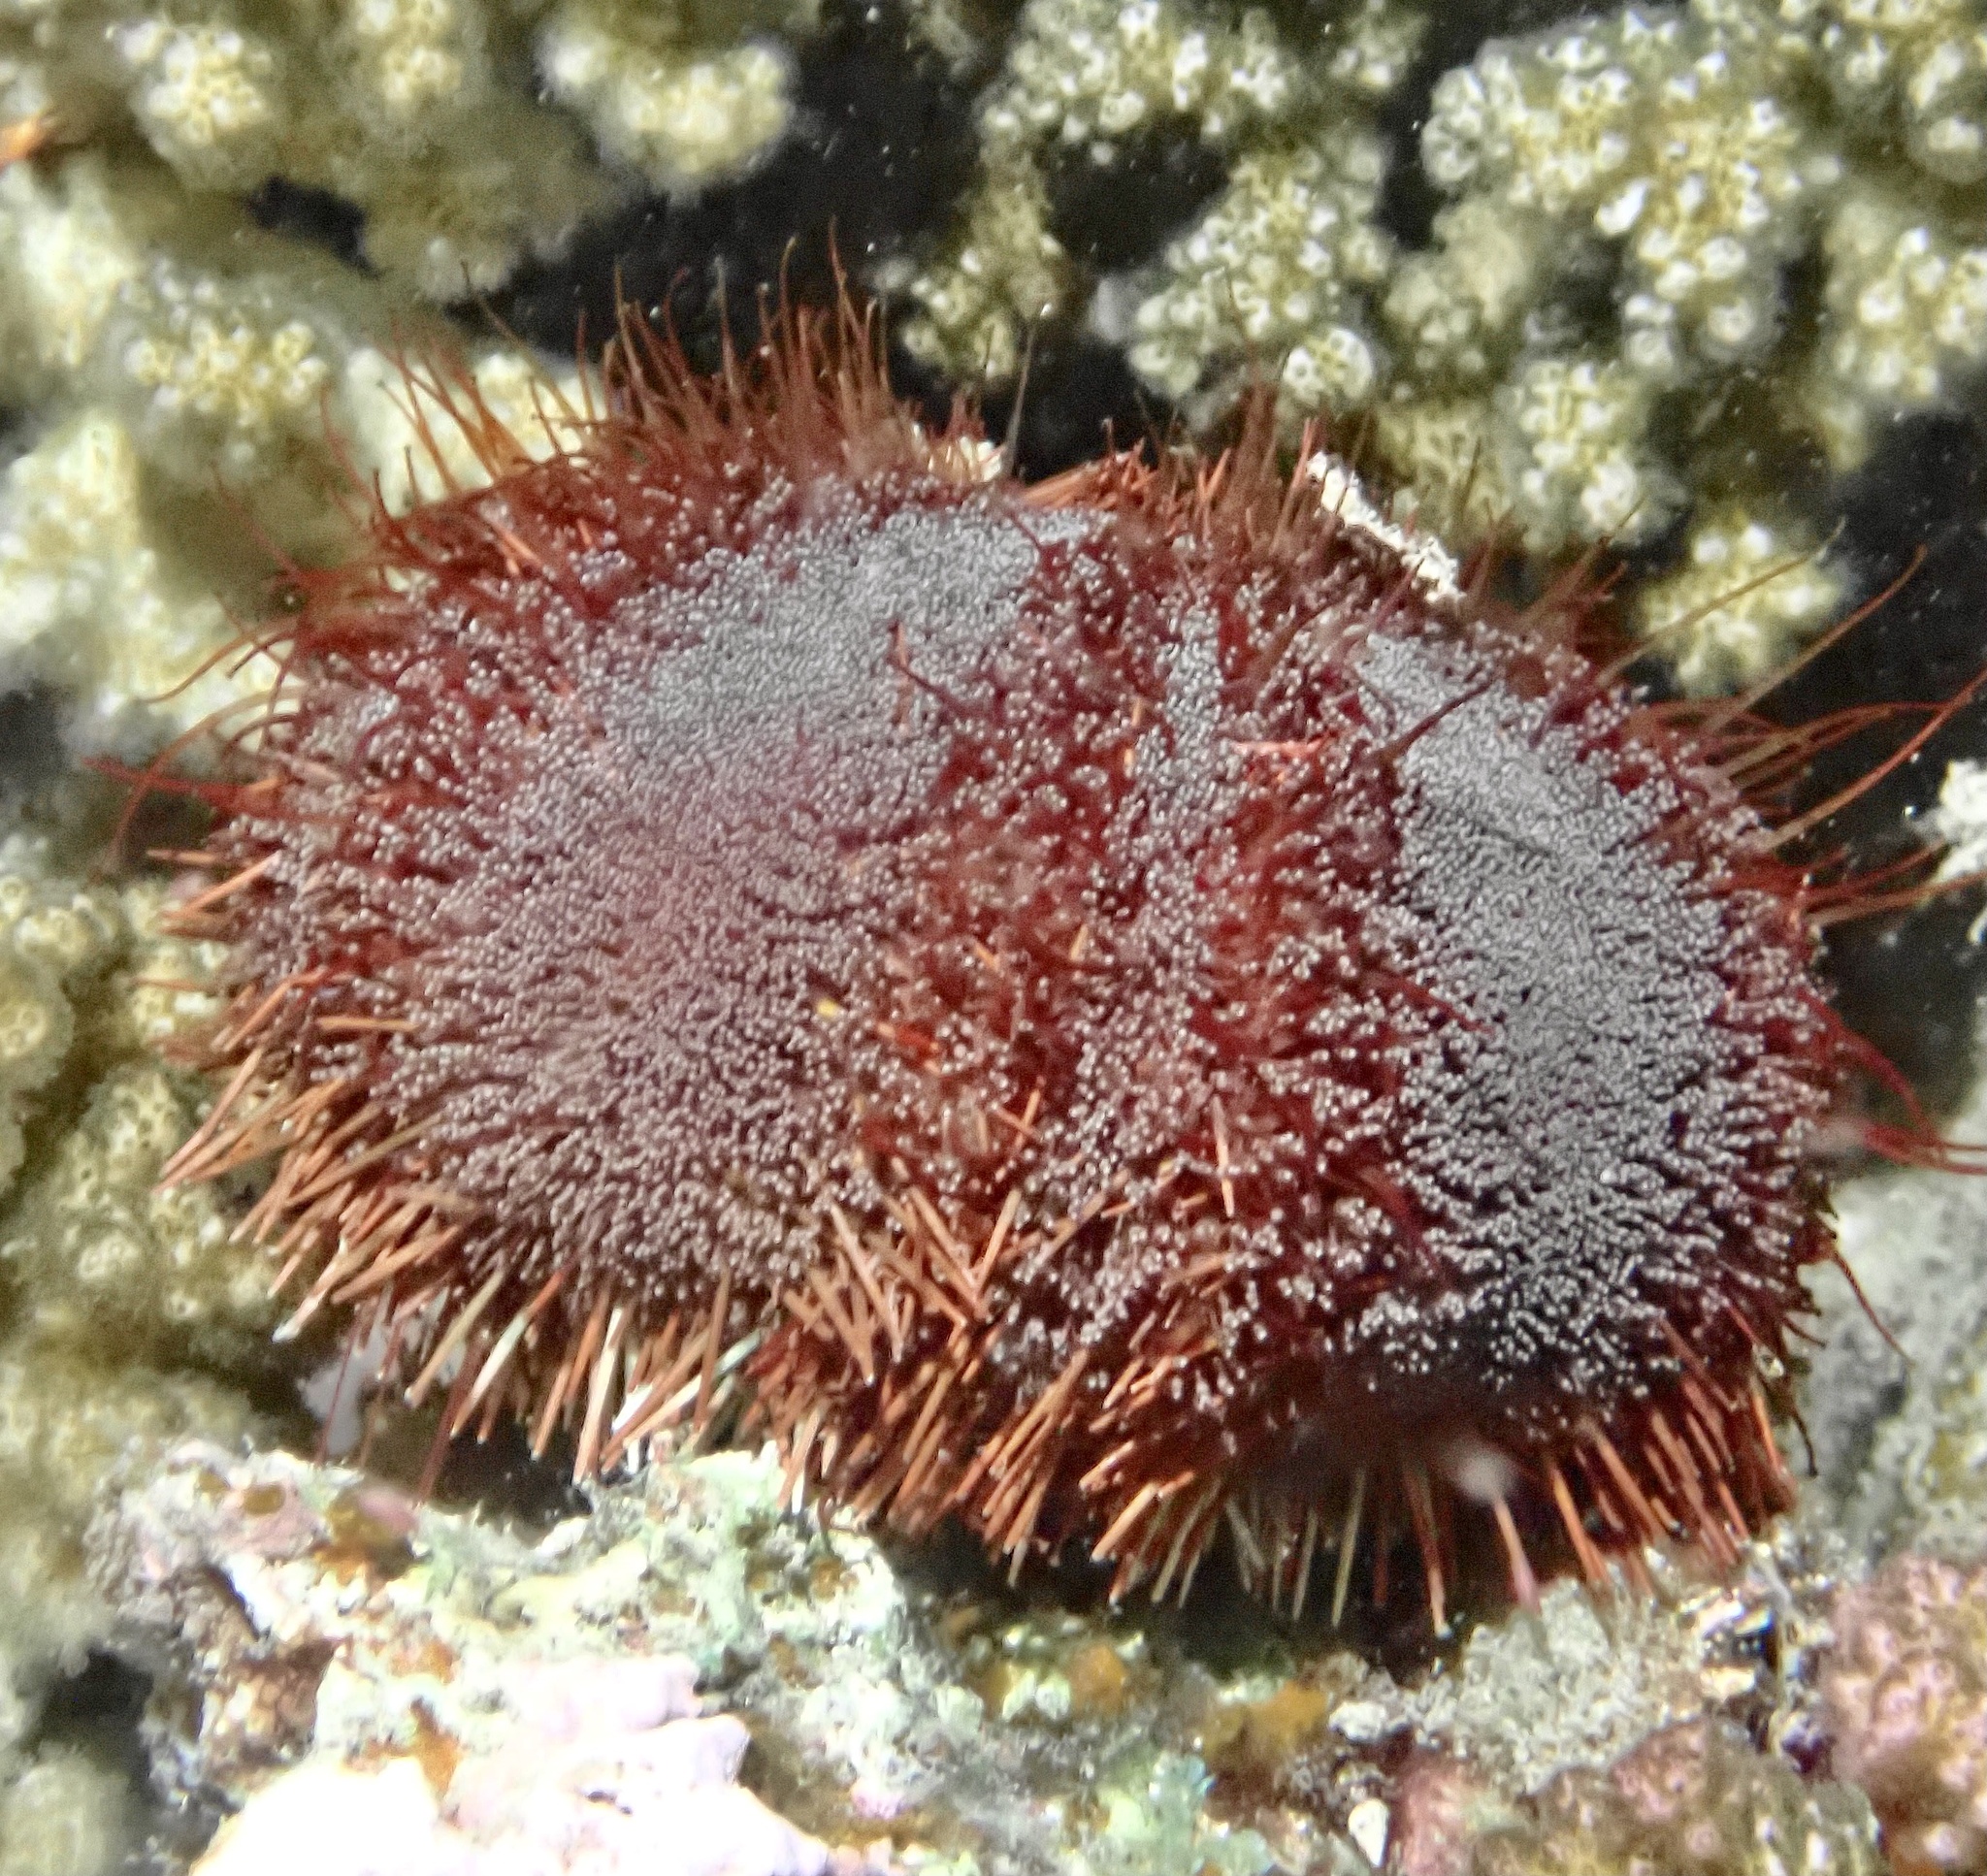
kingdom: Animalia
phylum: Echinodermata
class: Echinoidea
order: Camarodonta
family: Toxopneustidae
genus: Tripneustes
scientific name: Tripneustes gratilla
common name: Bischofsmützenseeigel
